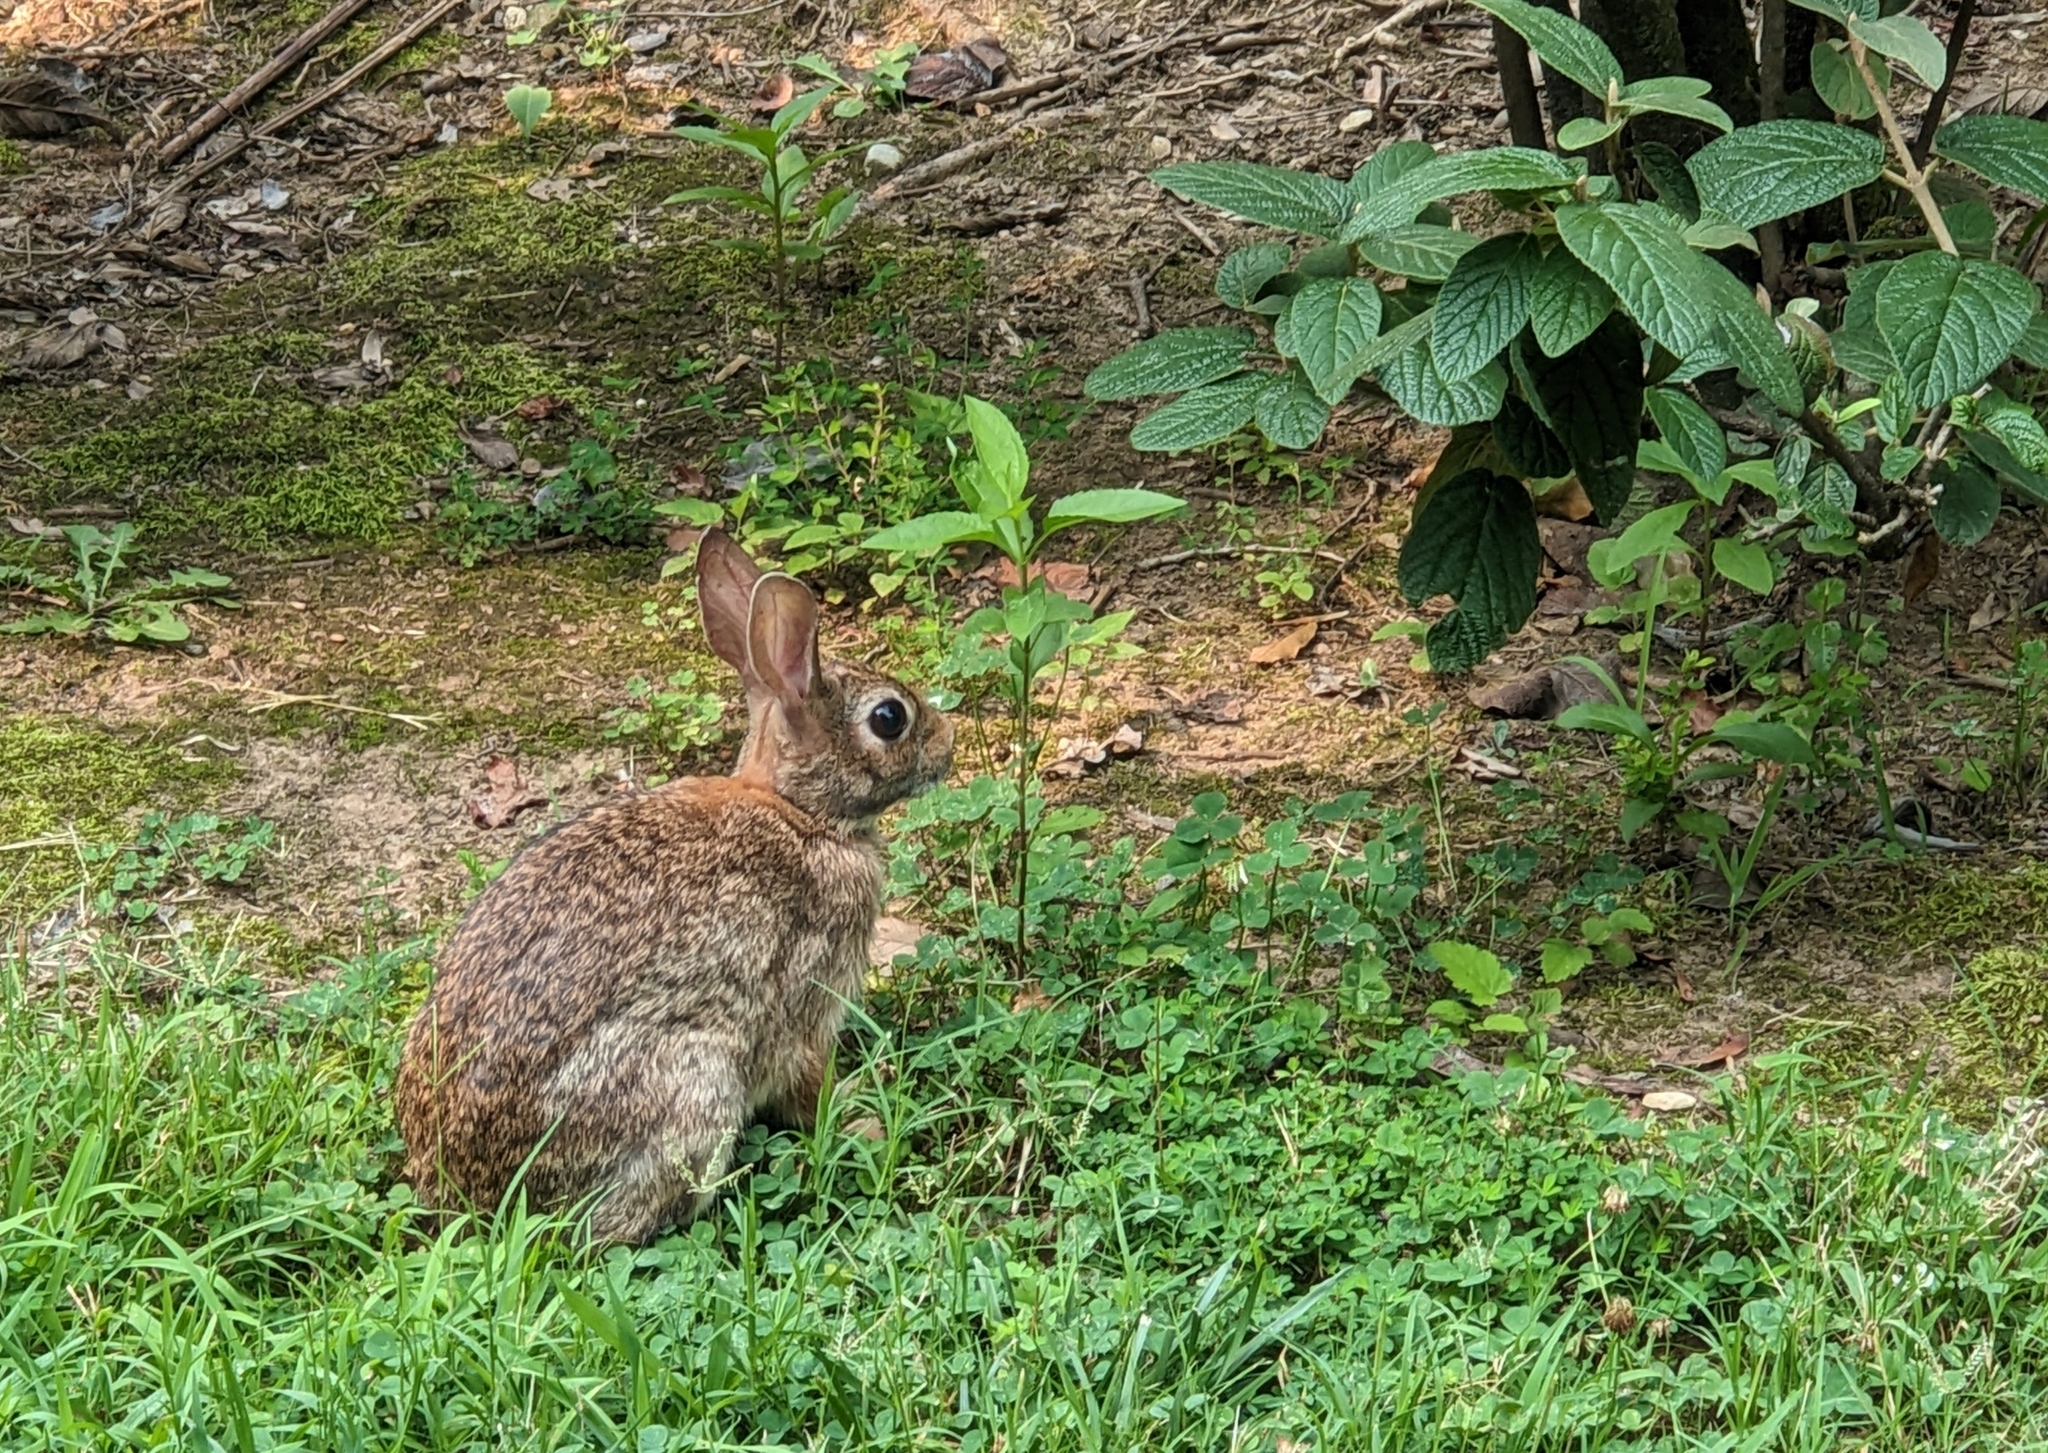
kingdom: Animalia
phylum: Chordata
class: Mammalia
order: Lagomorpha
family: Leporidae
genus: Sylvilagus
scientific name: Sylvilagus floridanus
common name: Eastern cottontail
